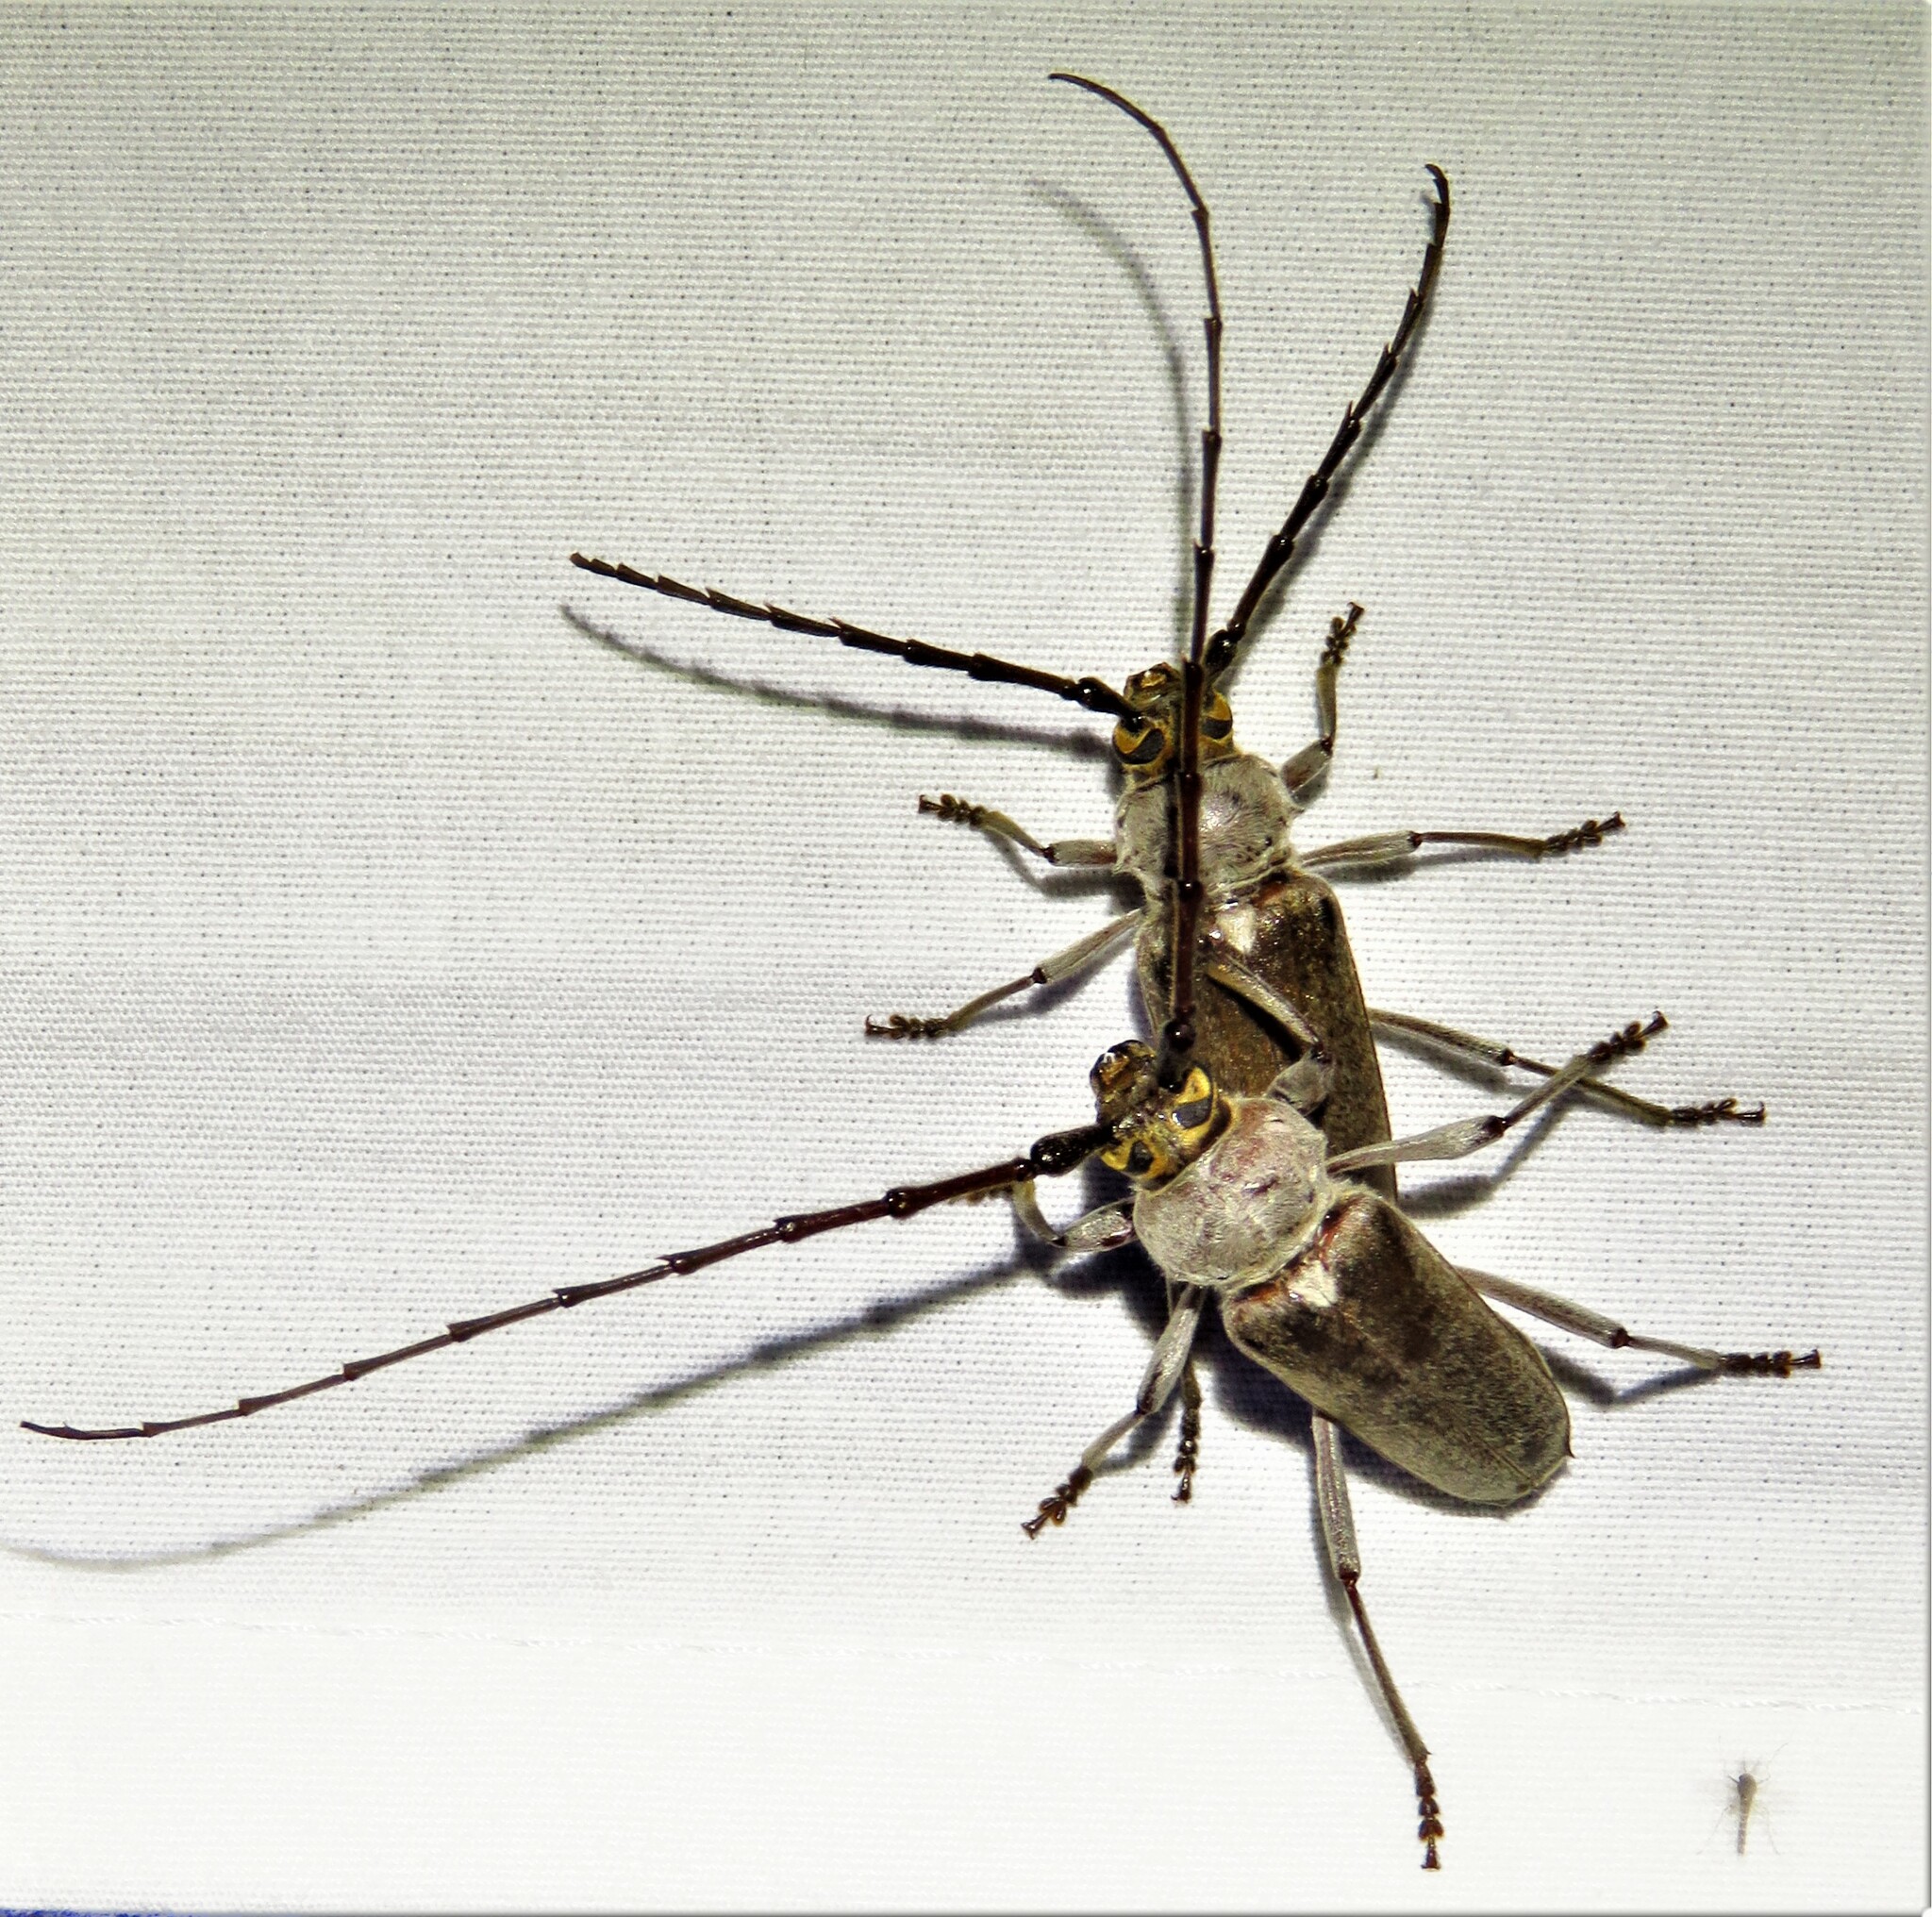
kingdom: Animalia
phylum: Arthropoda
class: Insecta
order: Coleoptera
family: Cerambycidae
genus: Gnaphalodes
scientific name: Gnaphalodes trachyderoides
